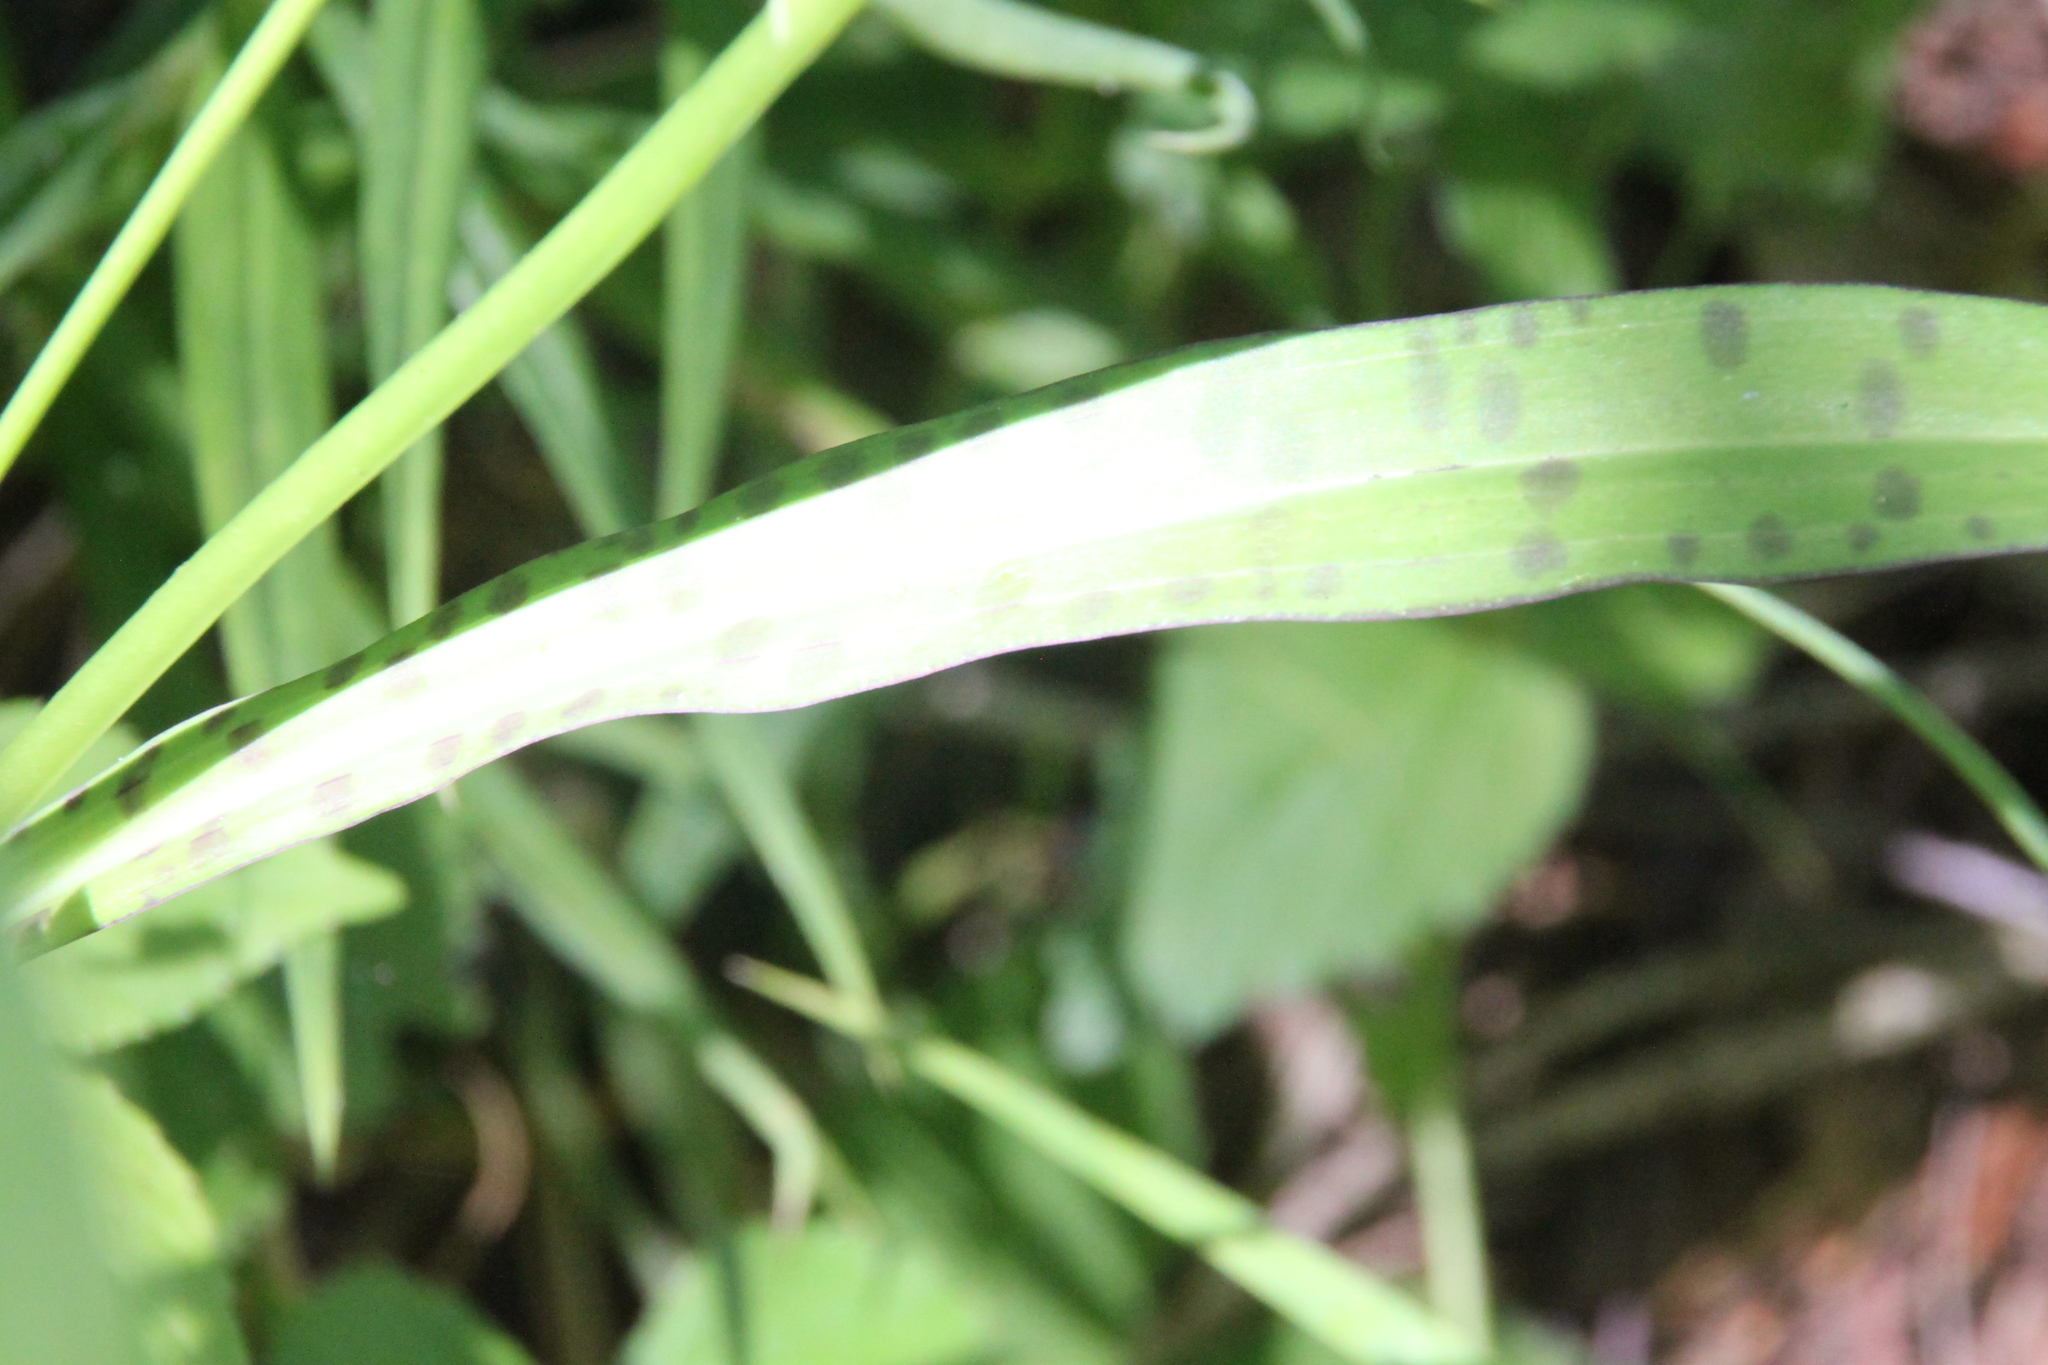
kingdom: Plantae
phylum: Tracheophyta
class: Liliopsida
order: Asparagales
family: Orchidaceae
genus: Dactylorhiza
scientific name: Dactylorhiza maculata
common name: Heath spotted-orchid
